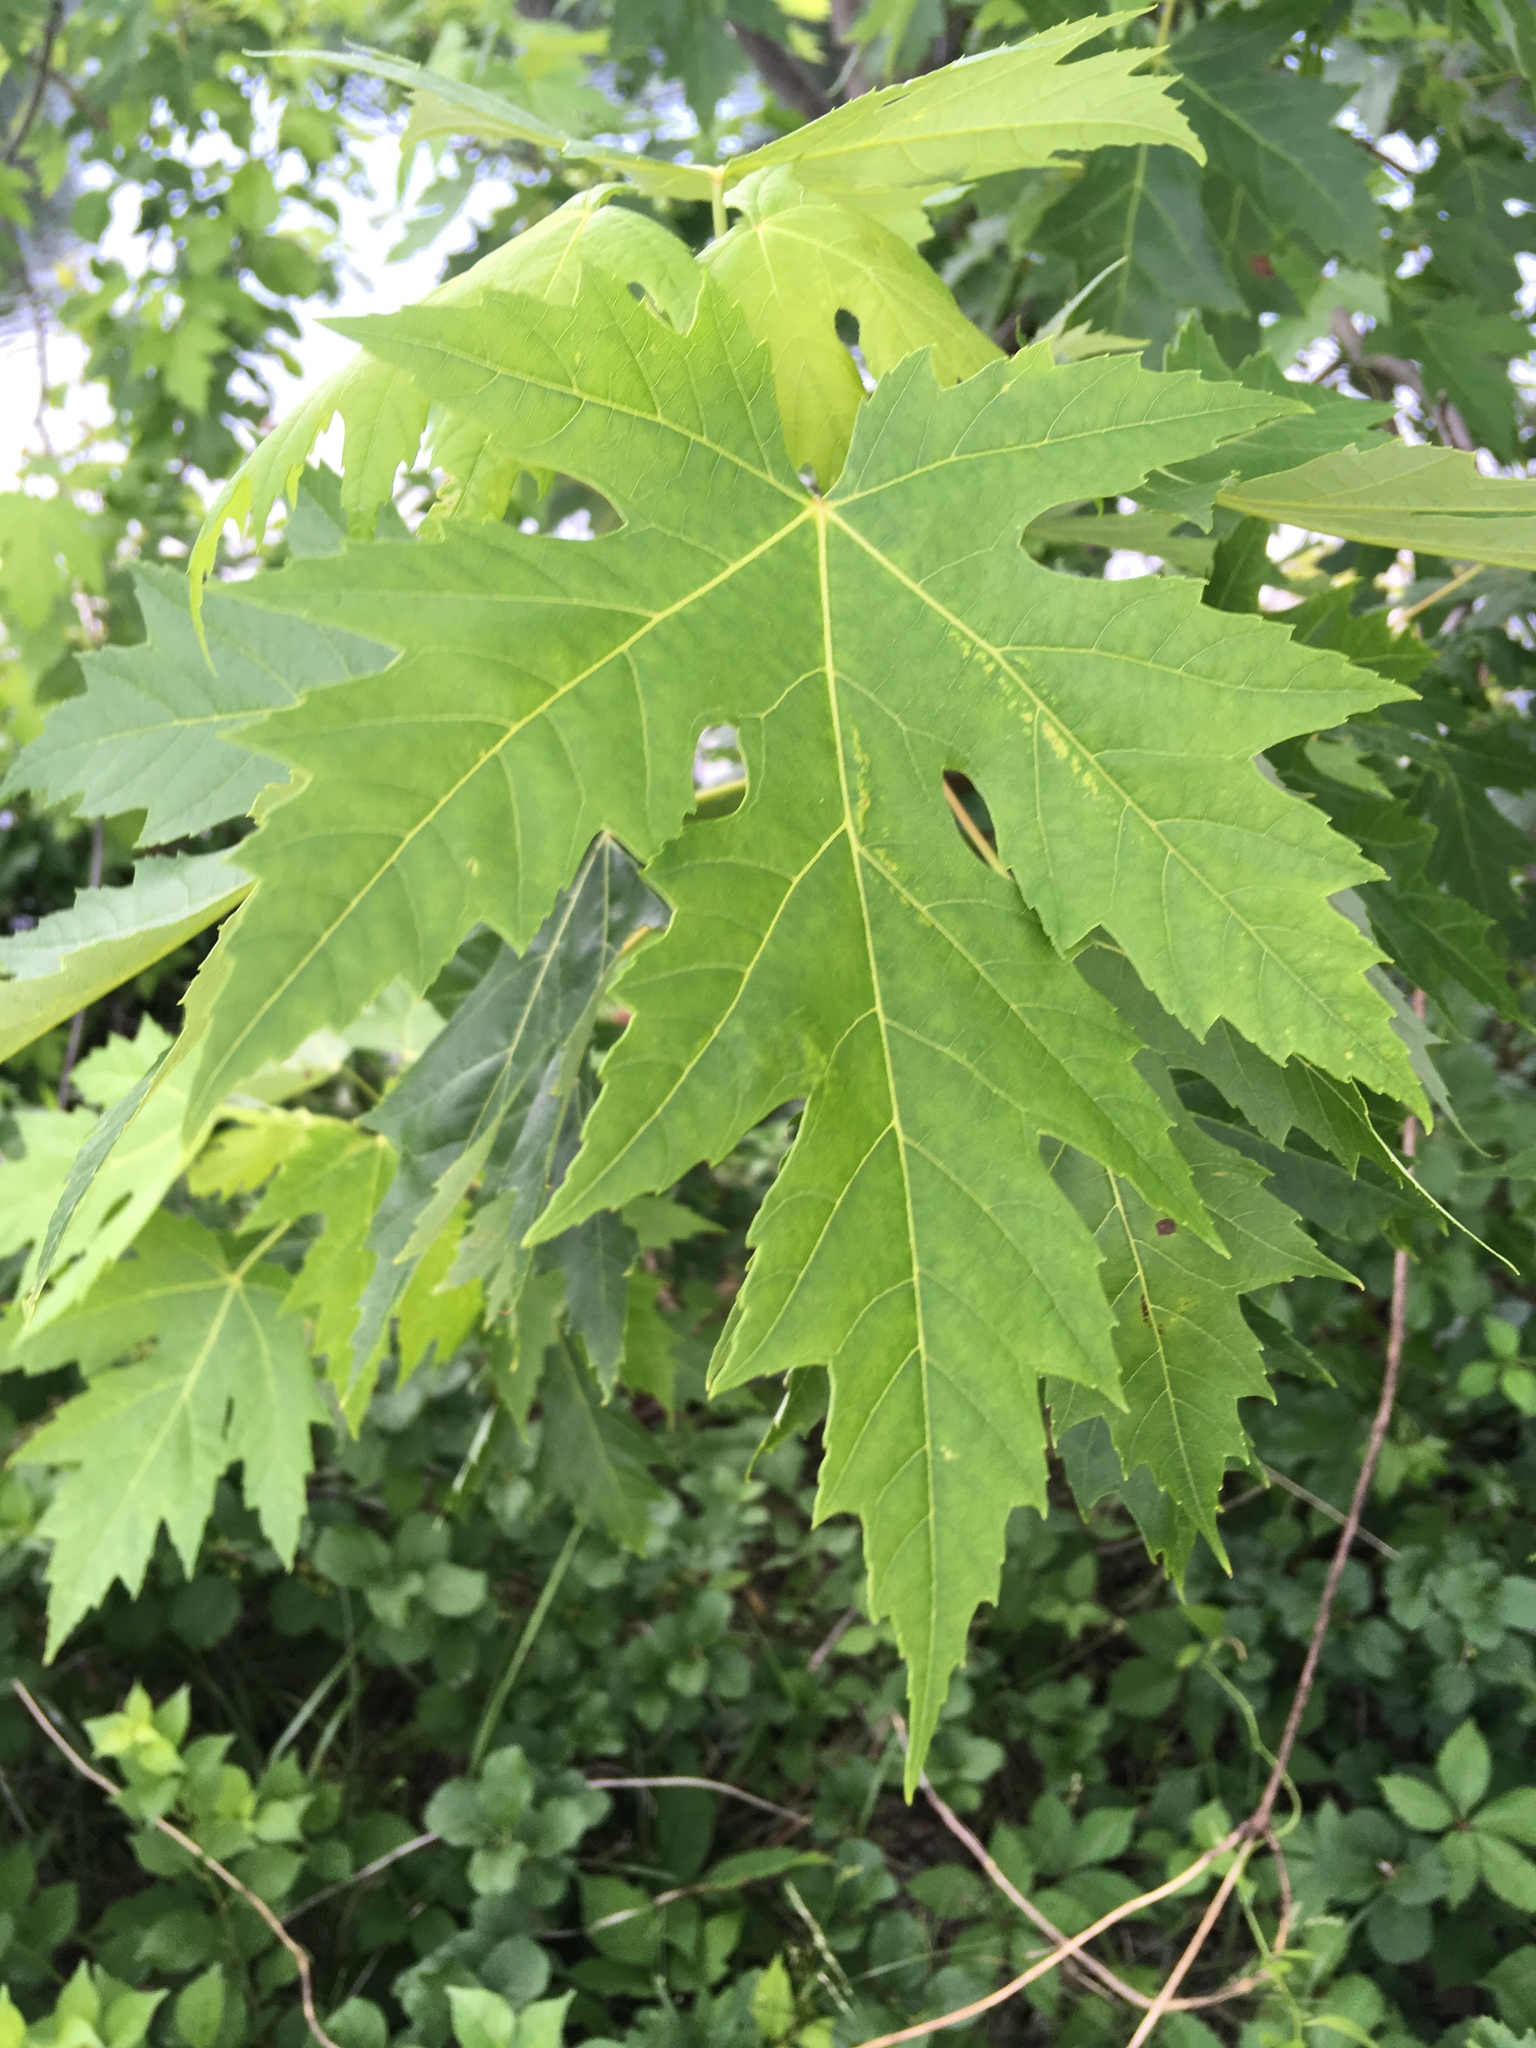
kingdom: Plantae
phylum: Tracheophyta
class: Magnoliopsida
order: Sapindales
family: Sapindaceae
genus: Acer
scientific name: Acer saccharinum
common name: Silver maple
